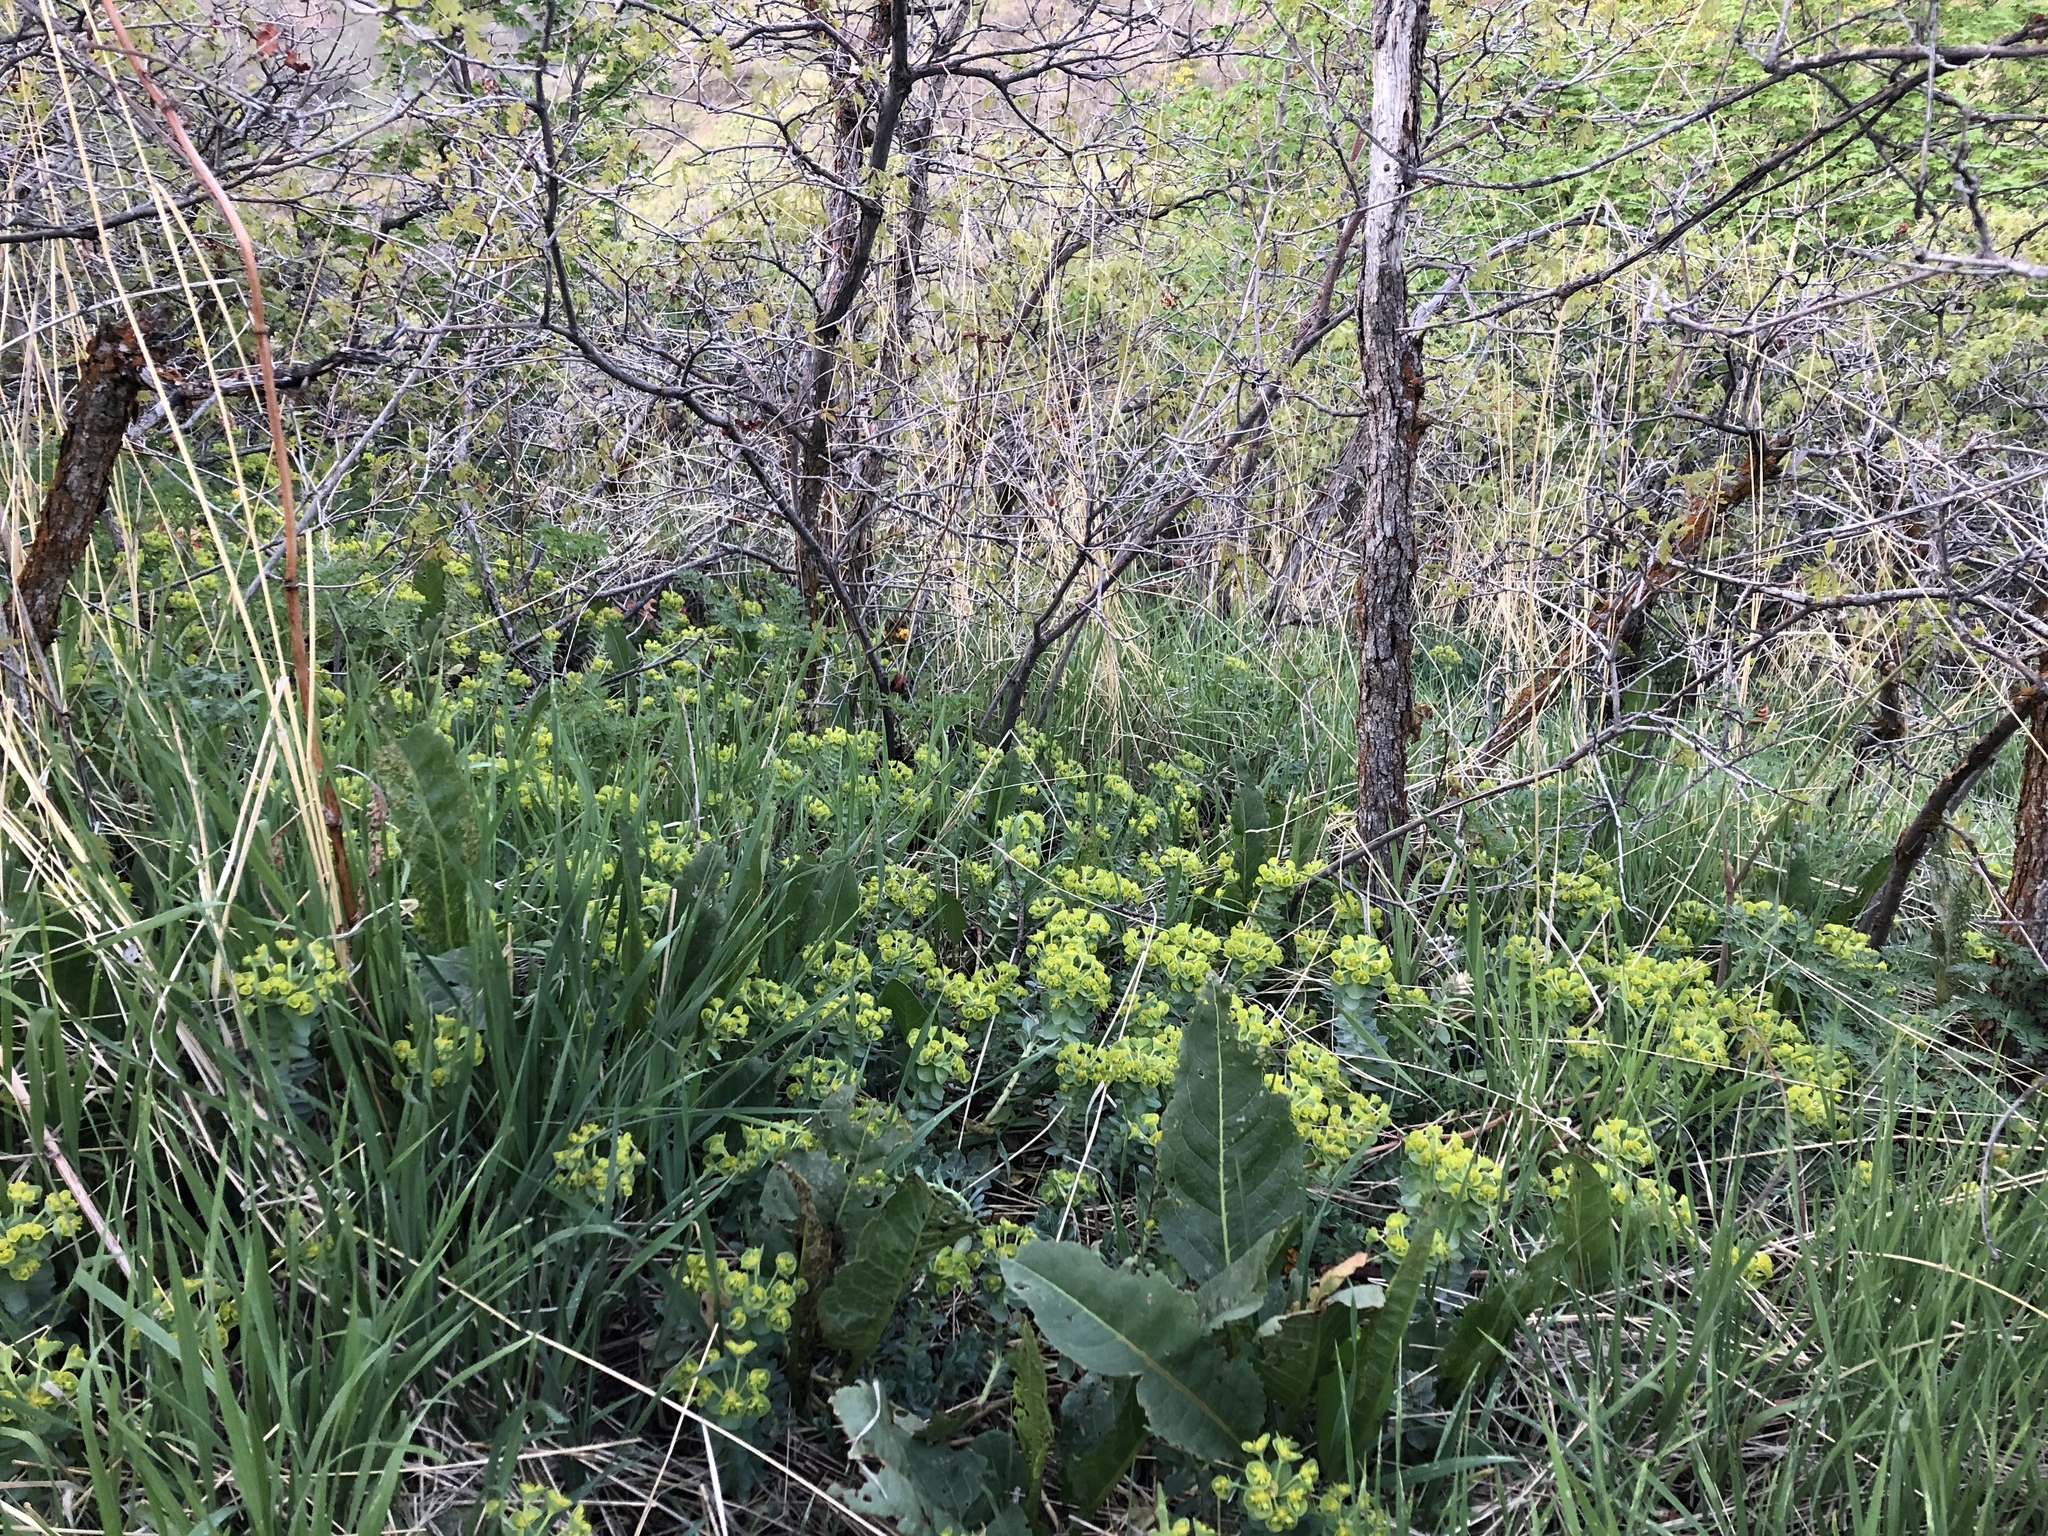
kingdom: Plantae
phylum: Tracheophyta
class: Magnoliopsida
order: Malpighiales
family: Euphorbiaceae
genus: Euphorbia
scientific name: Euphorbia myrsinites
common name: Myrtle spurge
